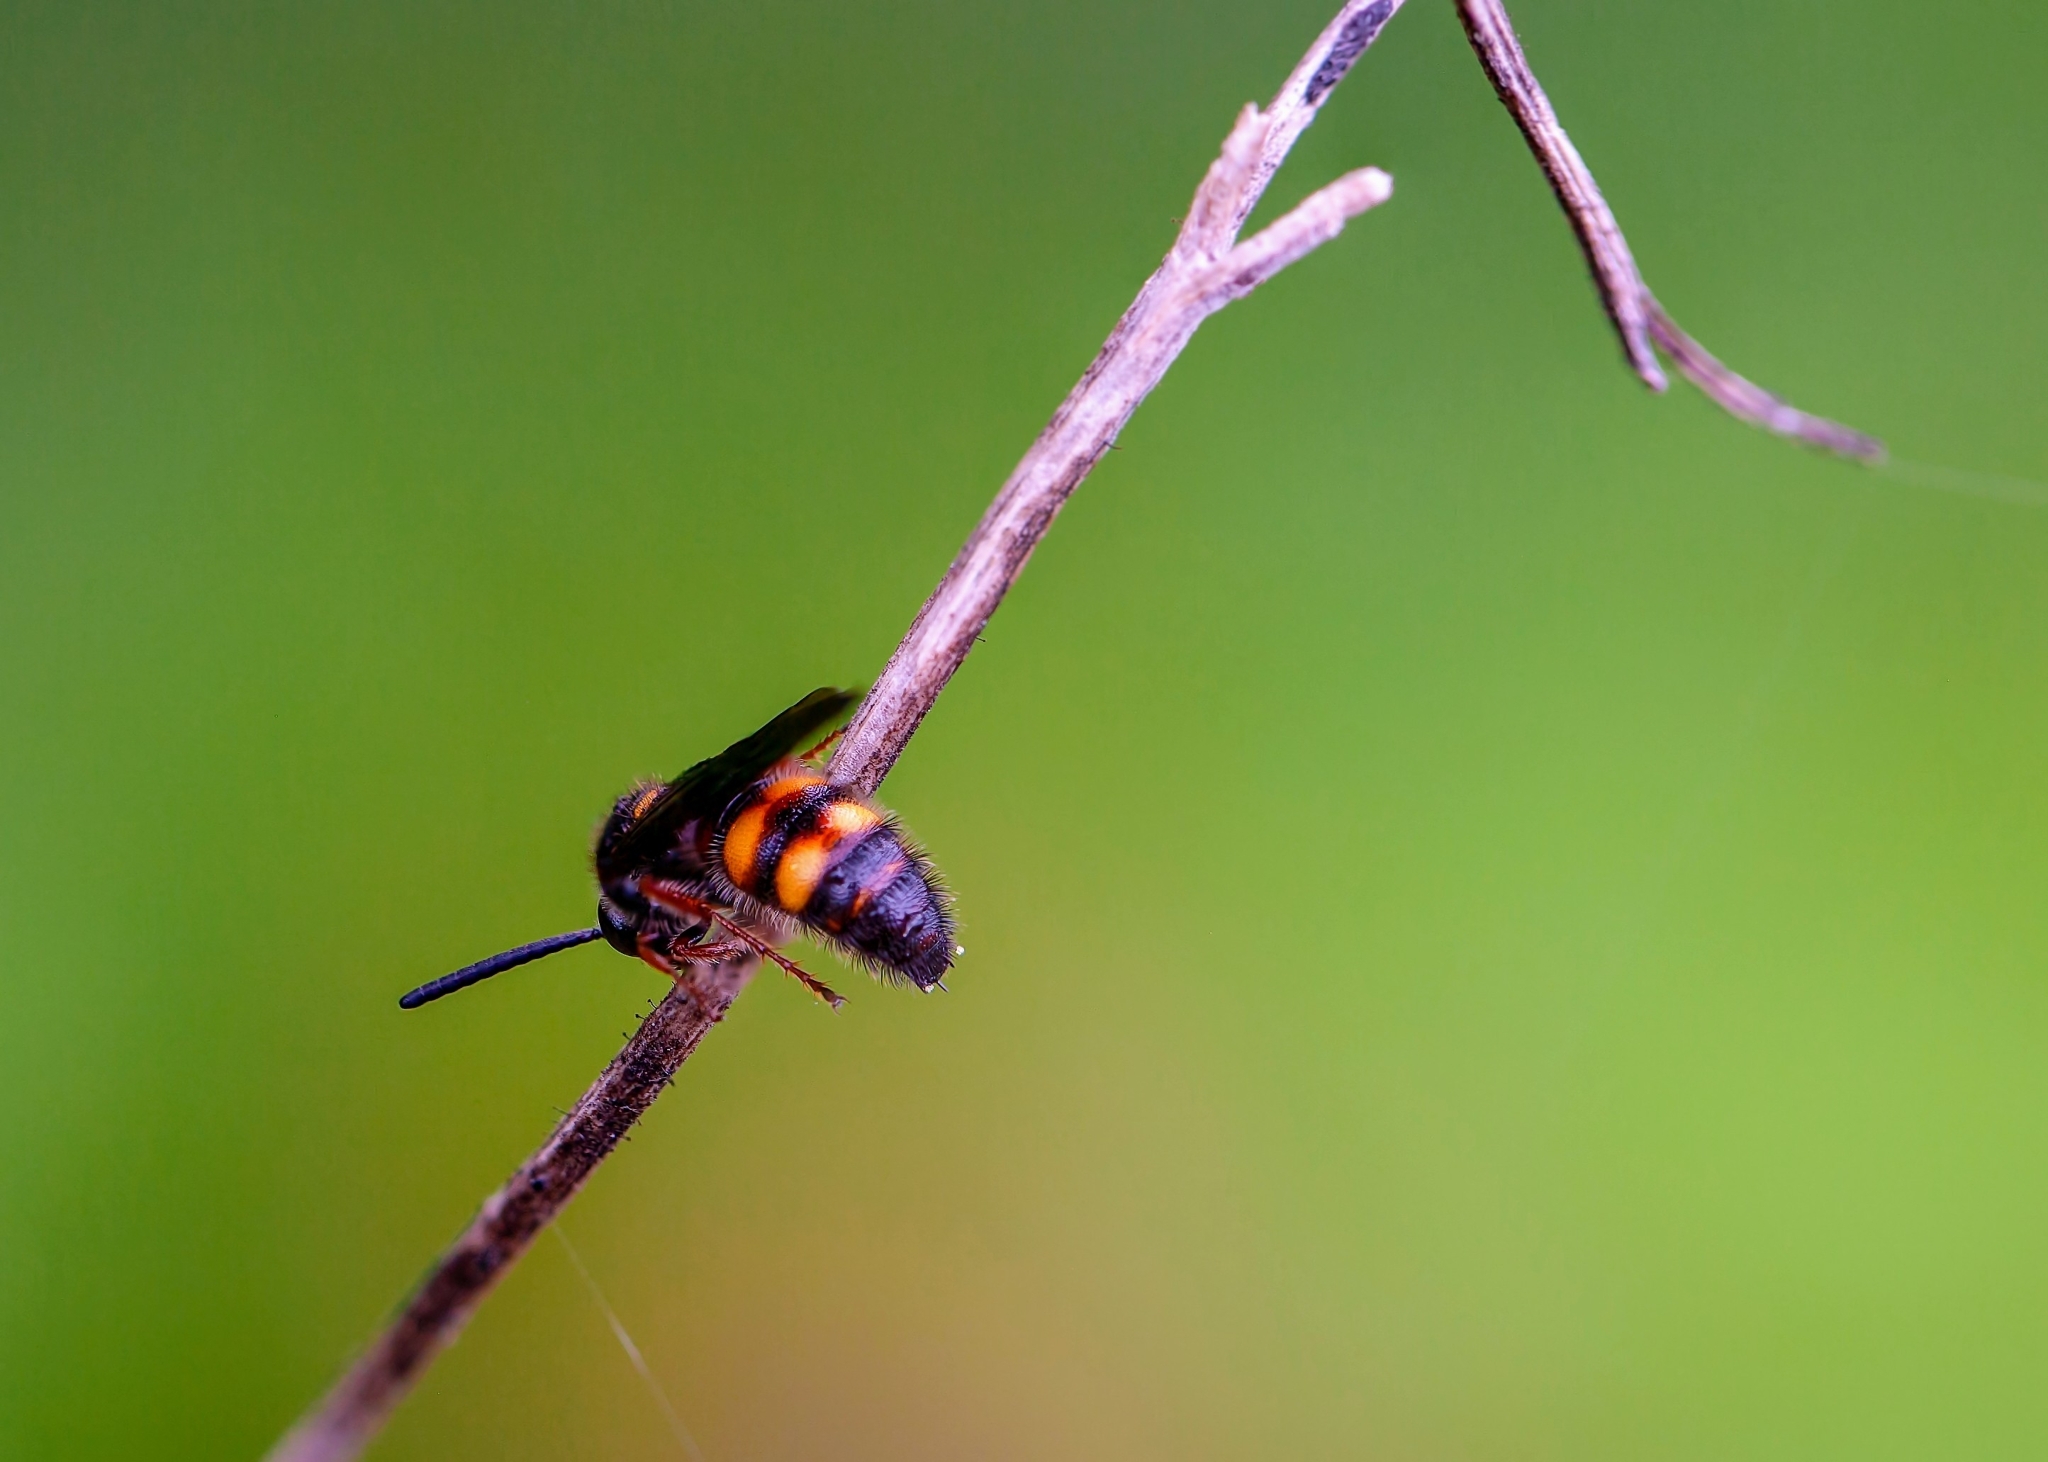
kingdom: Animalia
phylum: Arthropoda
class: Insecta
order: Hymenoptera
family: Scoliidae
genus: Scolia
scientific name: Scolia nobilitata
